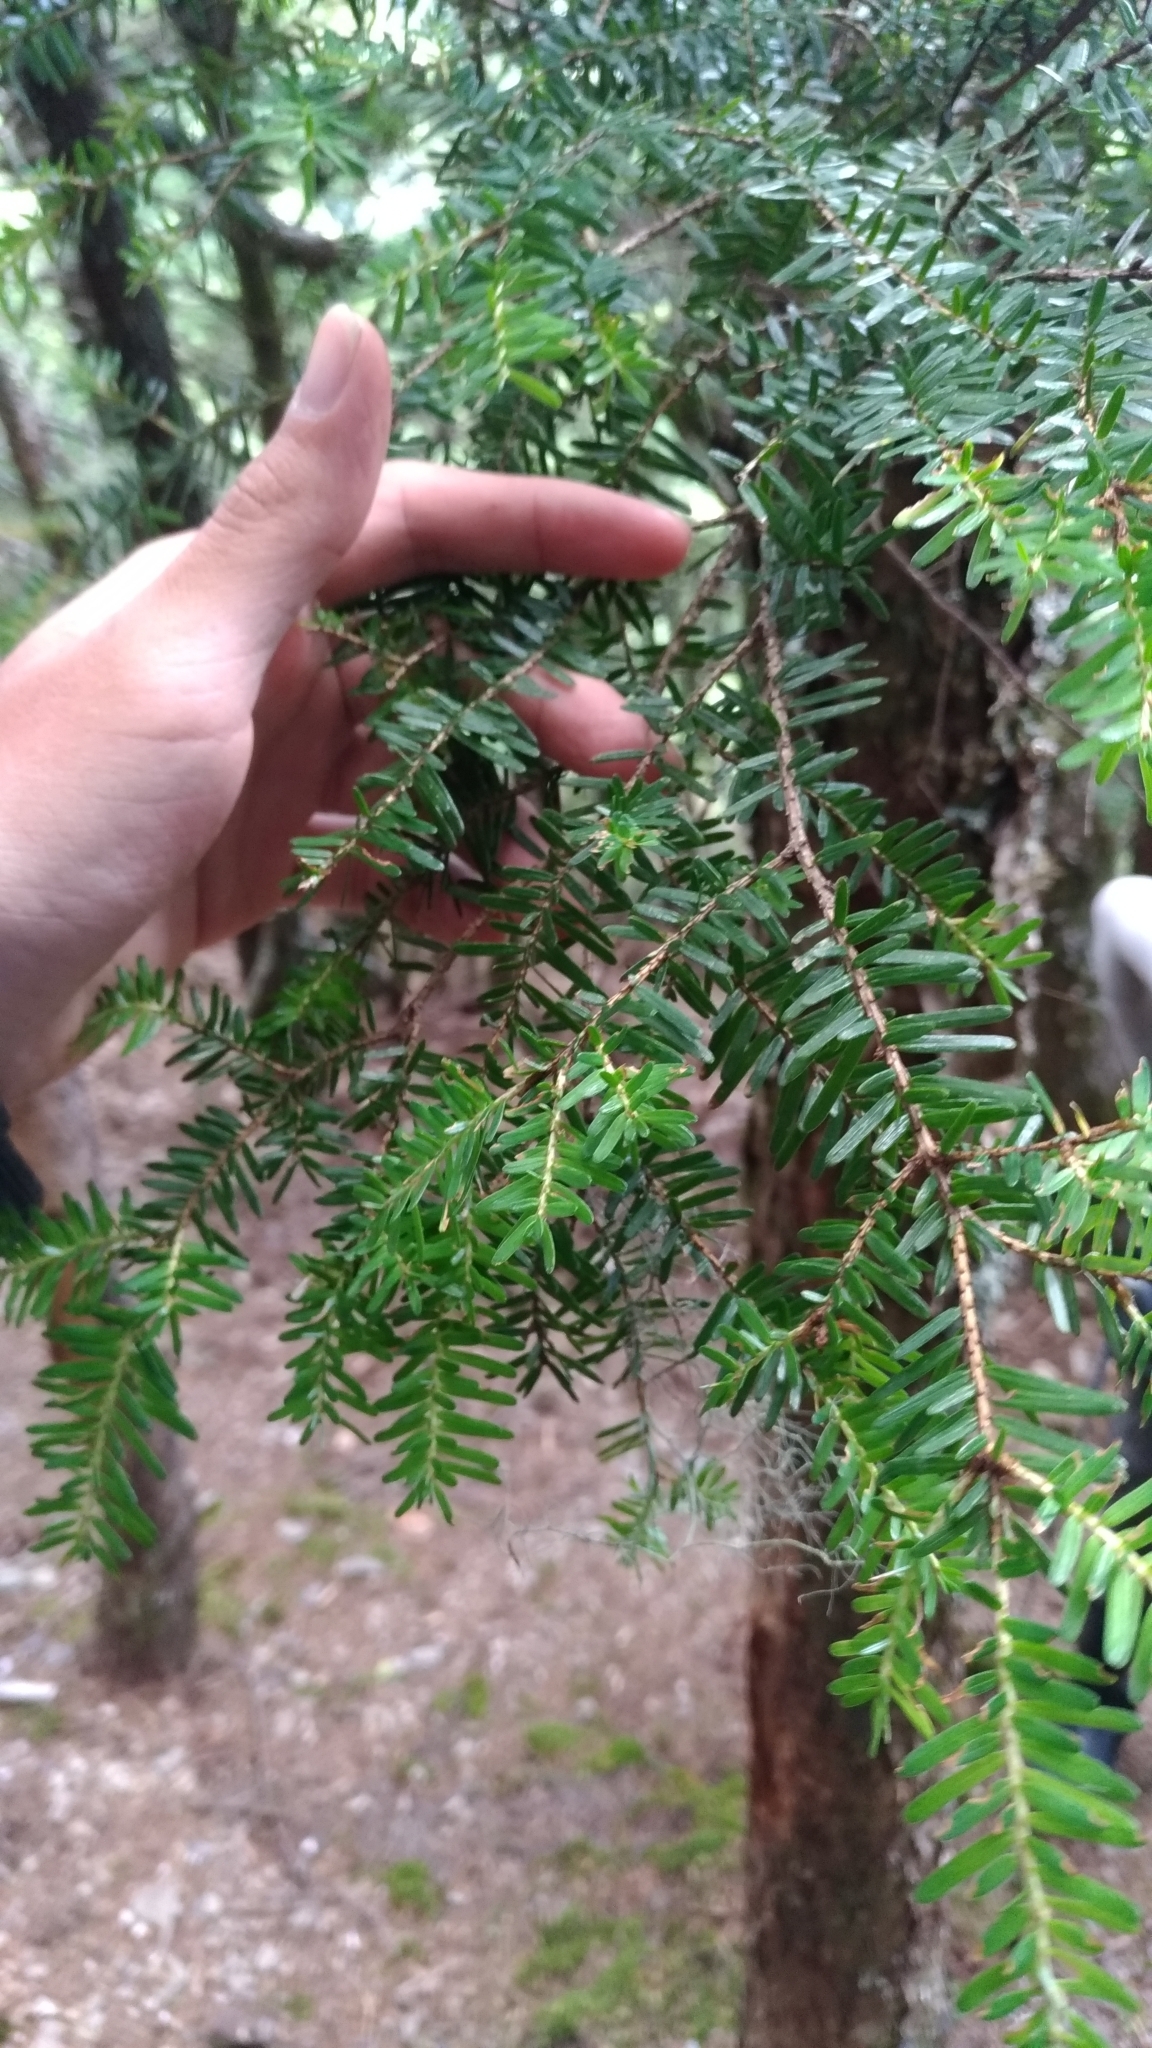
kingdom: Plantae
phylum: Tracheophyta
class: Pinopsida
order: Pinales
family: Pinaceae
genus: Tsuga
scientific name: Tsuga chinensis
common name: Chinese hemlock
